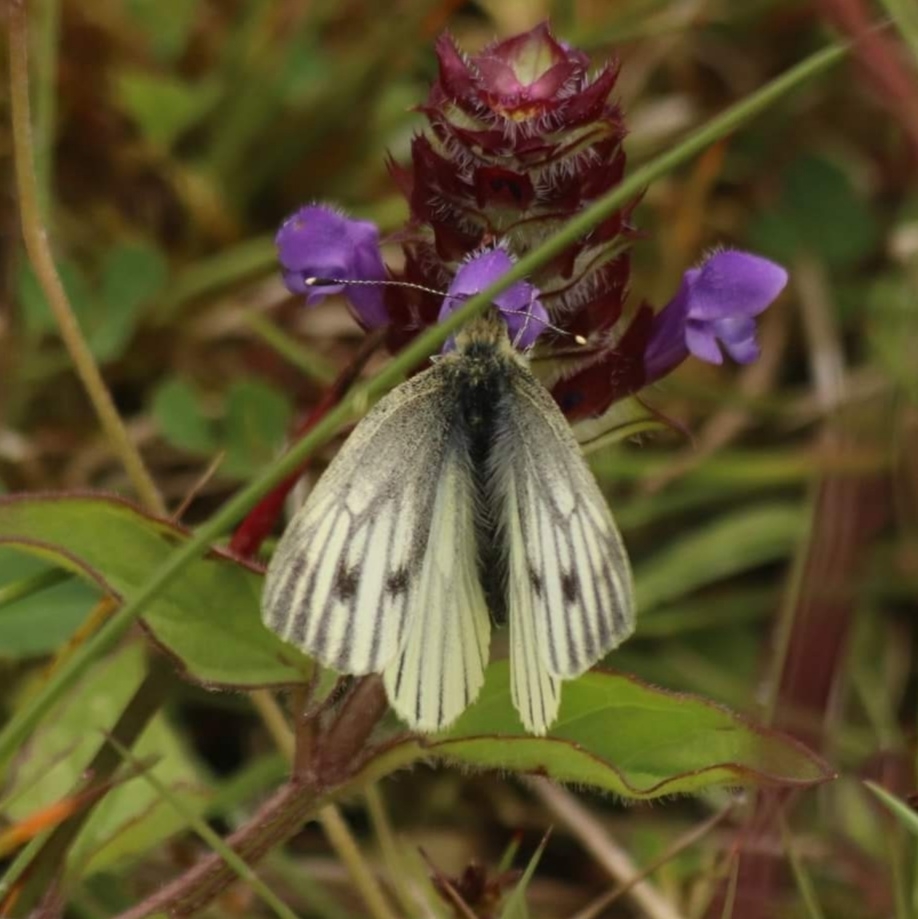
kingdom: Animalia
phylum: Arthropoda
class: Insecta
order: Lepidoptera
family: Pieridae
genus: Pieris
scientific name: Pieris napi
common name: Green-veined white
